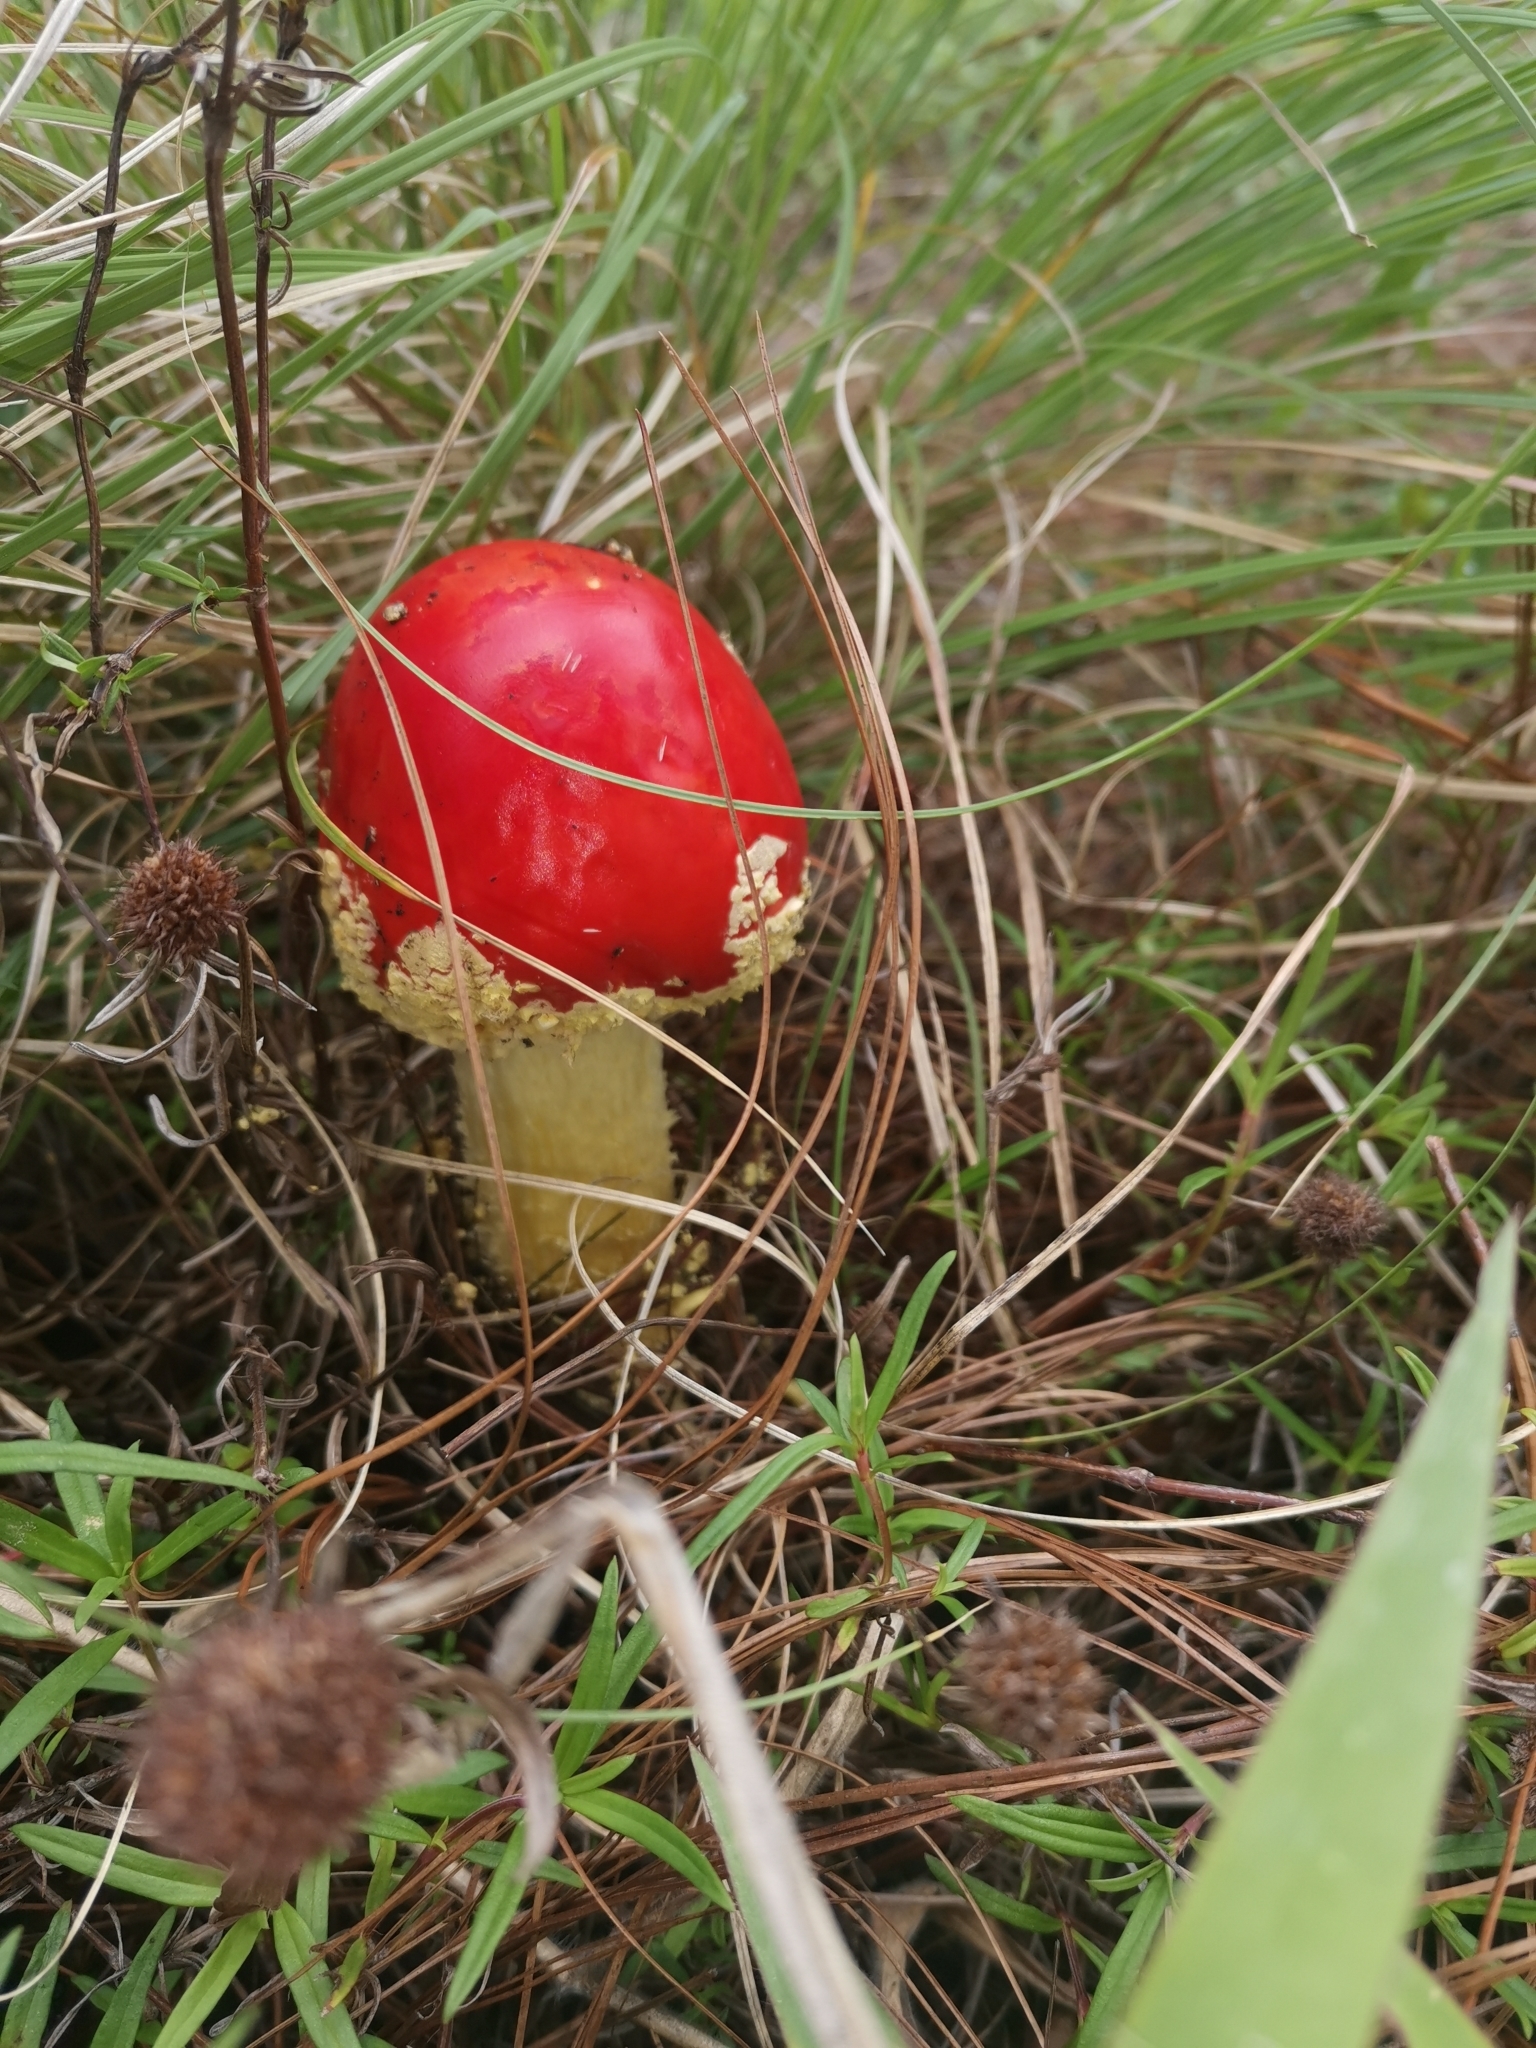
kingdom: Fungi
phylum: Basidiomycota
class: Agaricomycetes
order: Agaricales
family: Amanitaceae
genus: Amanita
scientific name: Amanita muscaria
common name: Fly agaric
